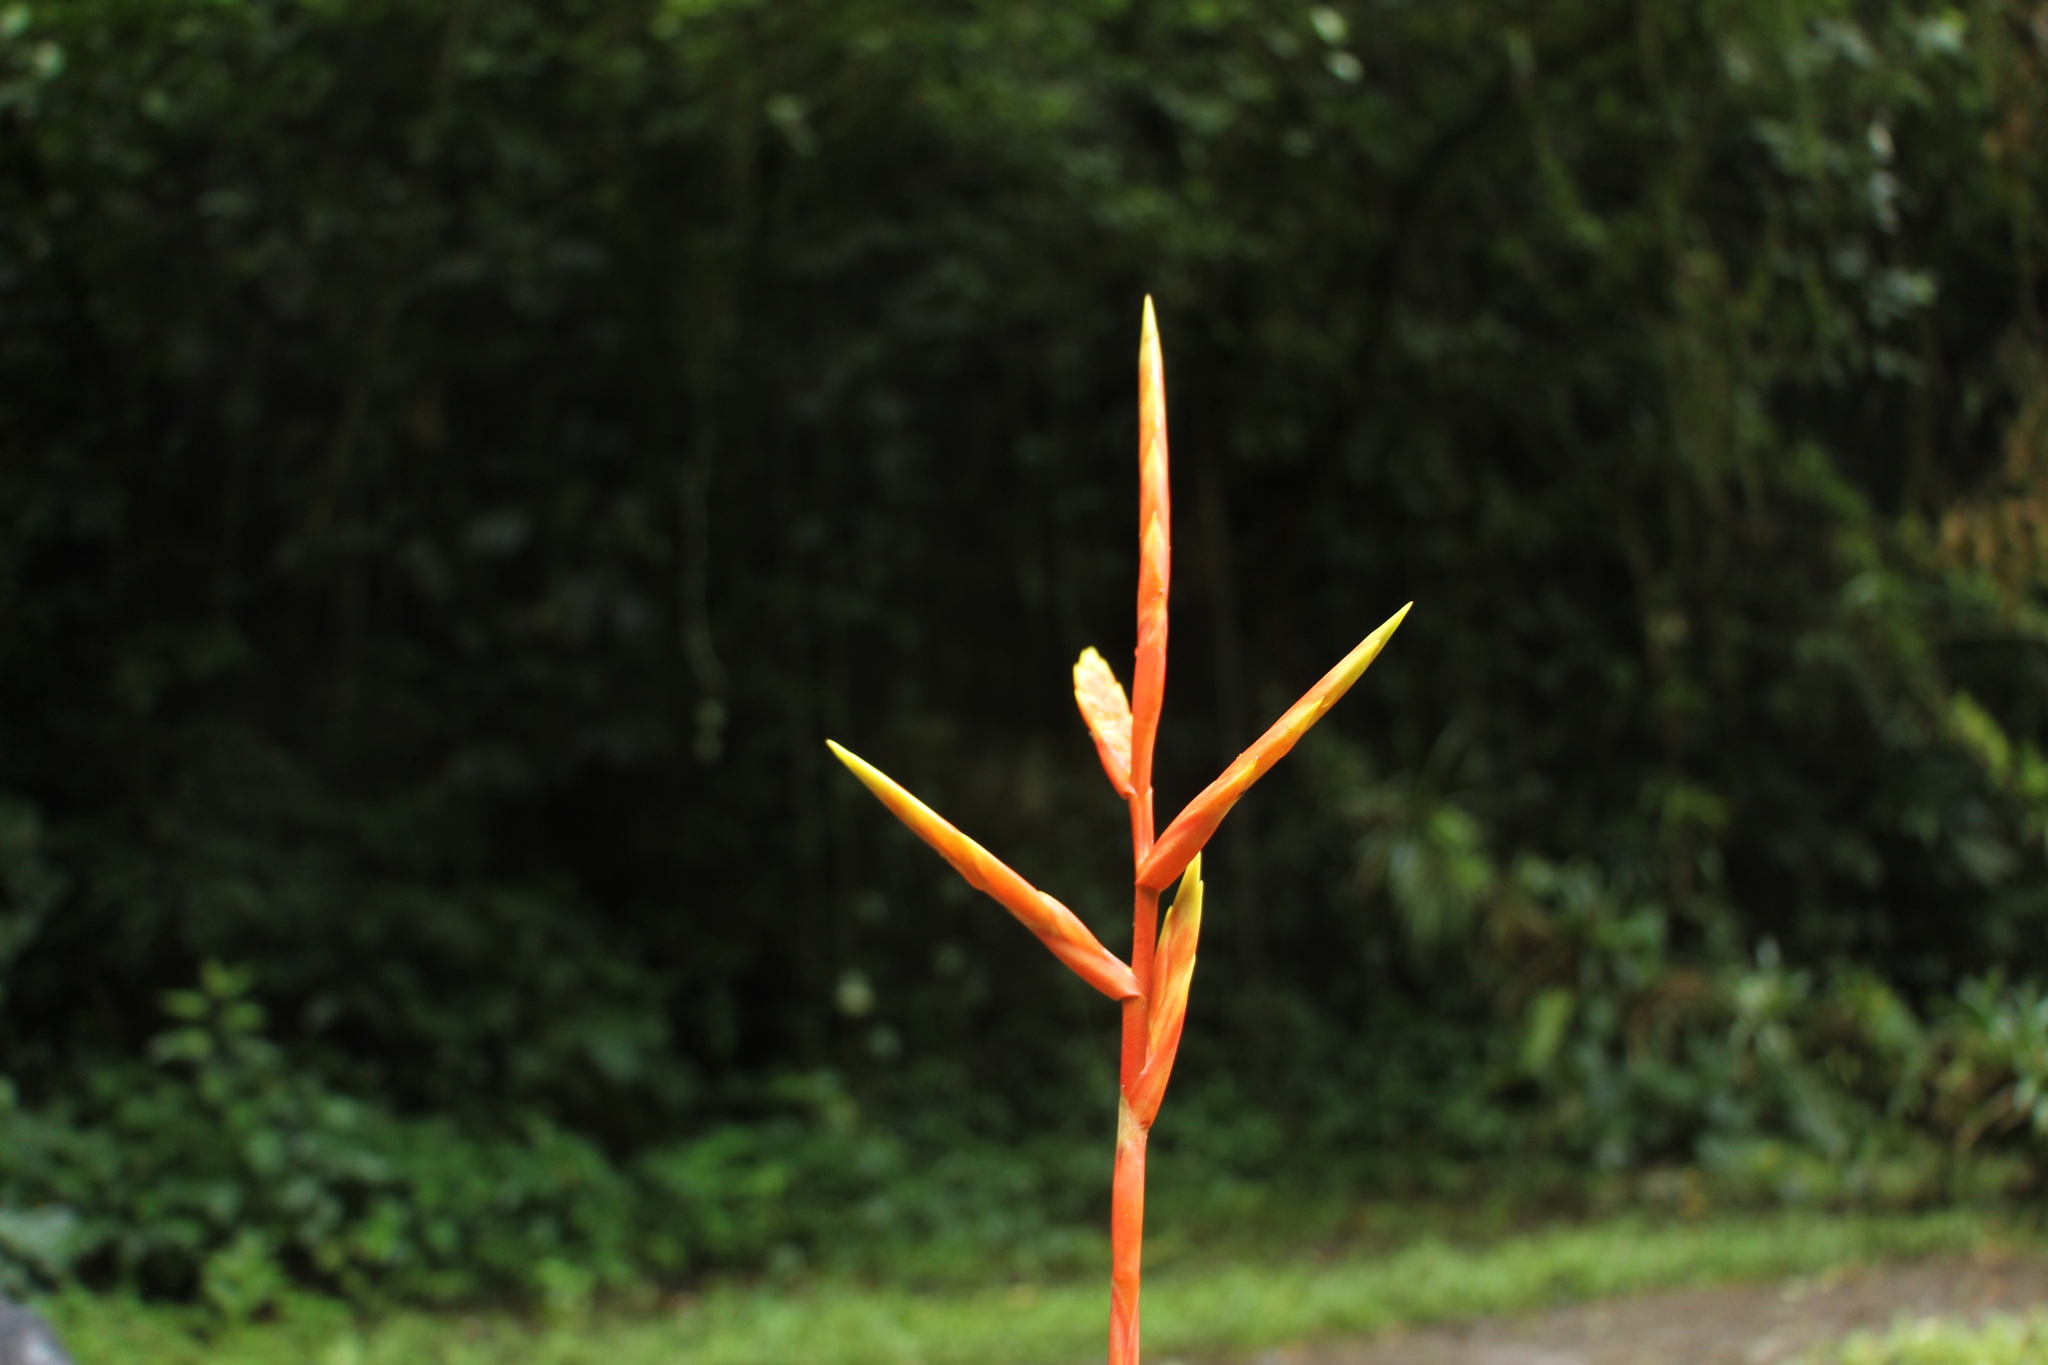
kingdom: Plantae
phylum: Tracheophyta
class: Liliopsida
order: Poales
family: Bromeliaceae
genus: Vriesea
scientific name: Vriesea rubra
